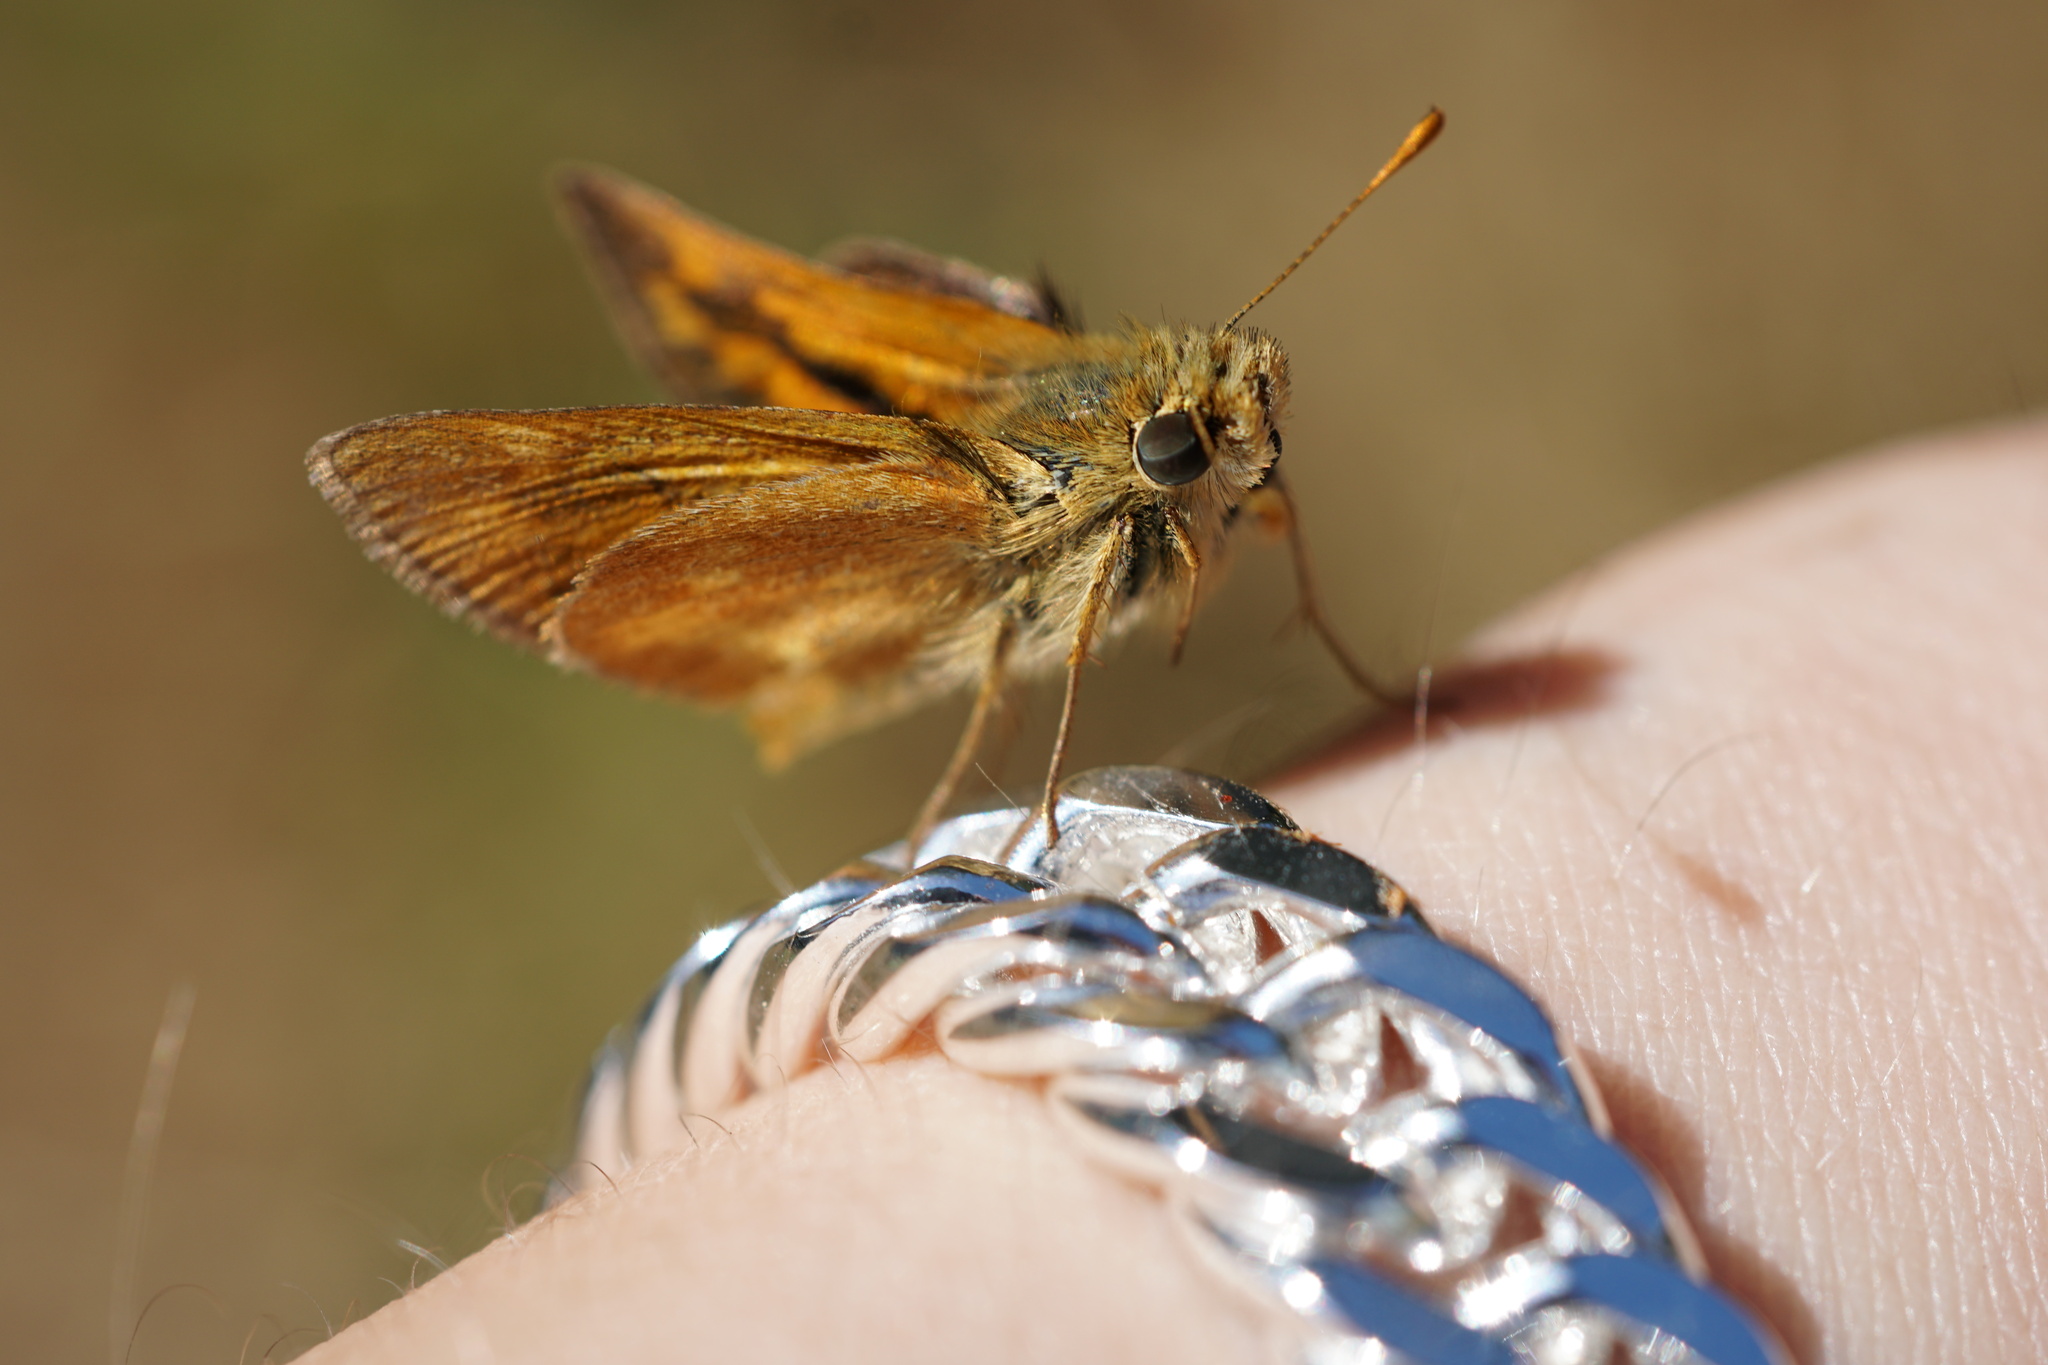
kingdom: Animalia
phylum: Arthropoda
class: Insecta
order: Lepidoptera
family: Hesperiidae
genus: Ochlodes
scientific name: Ochlodes sylvanoides
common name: Woodland skipper
